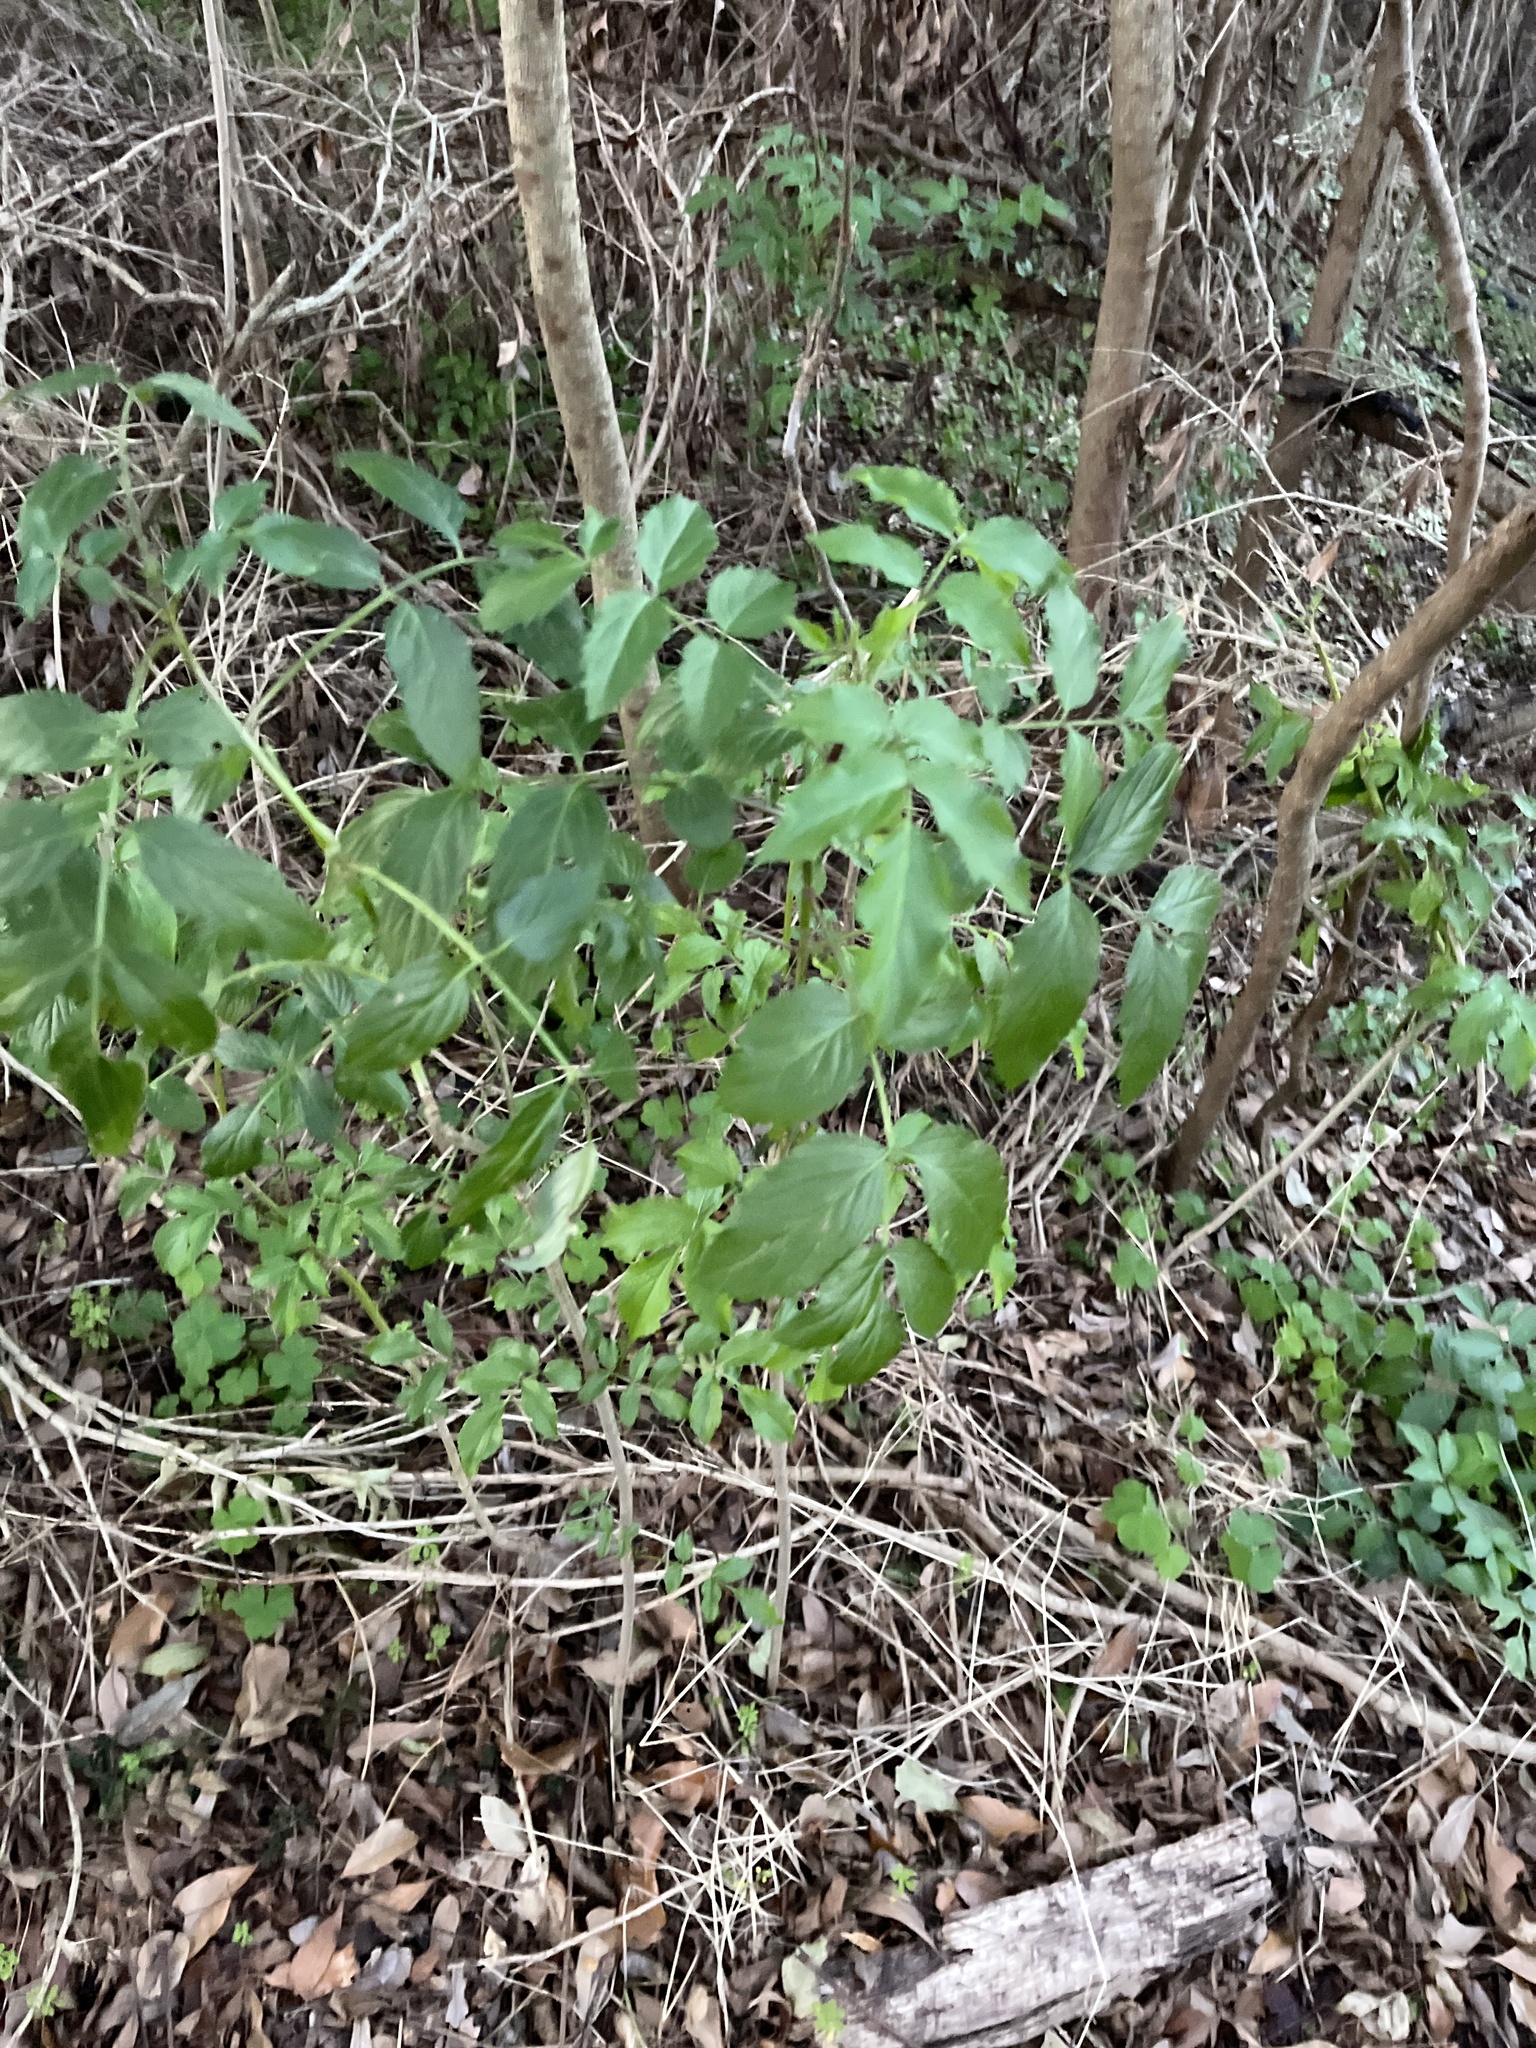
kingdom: Plantae
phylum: Tracheophyta
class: Magnoliopsida
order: Dipsacales
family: Viburnaceae
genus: Sambucus
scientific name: Sambucus canadensis
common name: American elder
